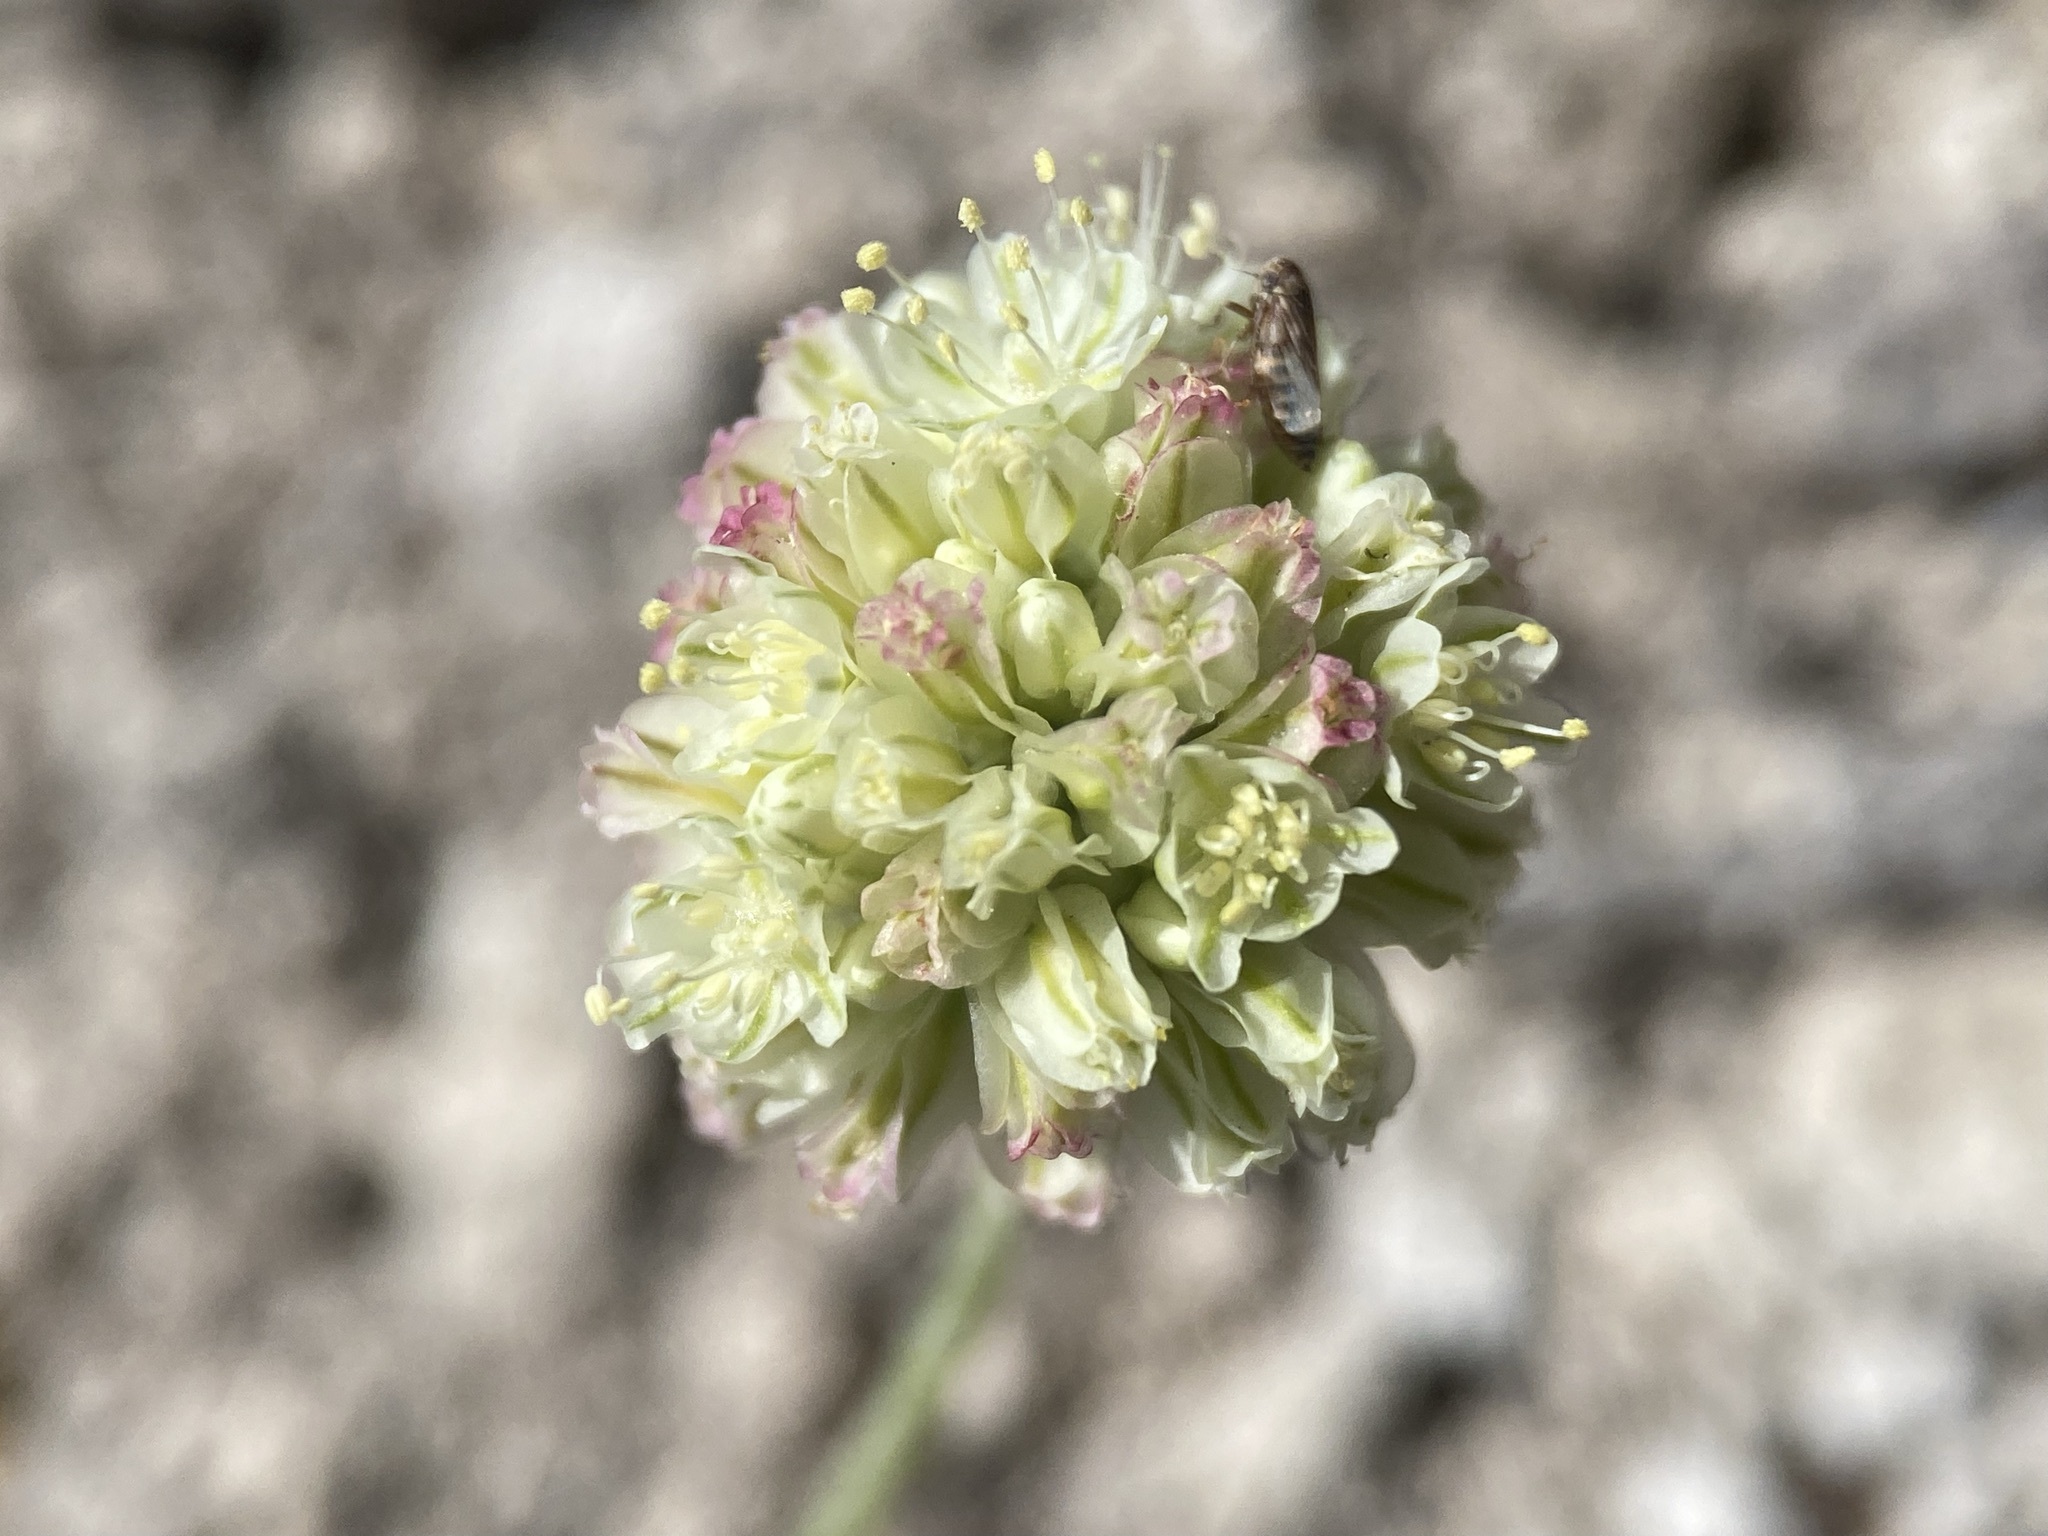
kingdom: Plantae
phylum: Tracheophyta
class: Magnoliopsida
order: Caryophyllales
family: Polygonaceae
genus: Eriogonum
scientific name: Eriogonum ovalifolium
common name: Cushion buckwheat
